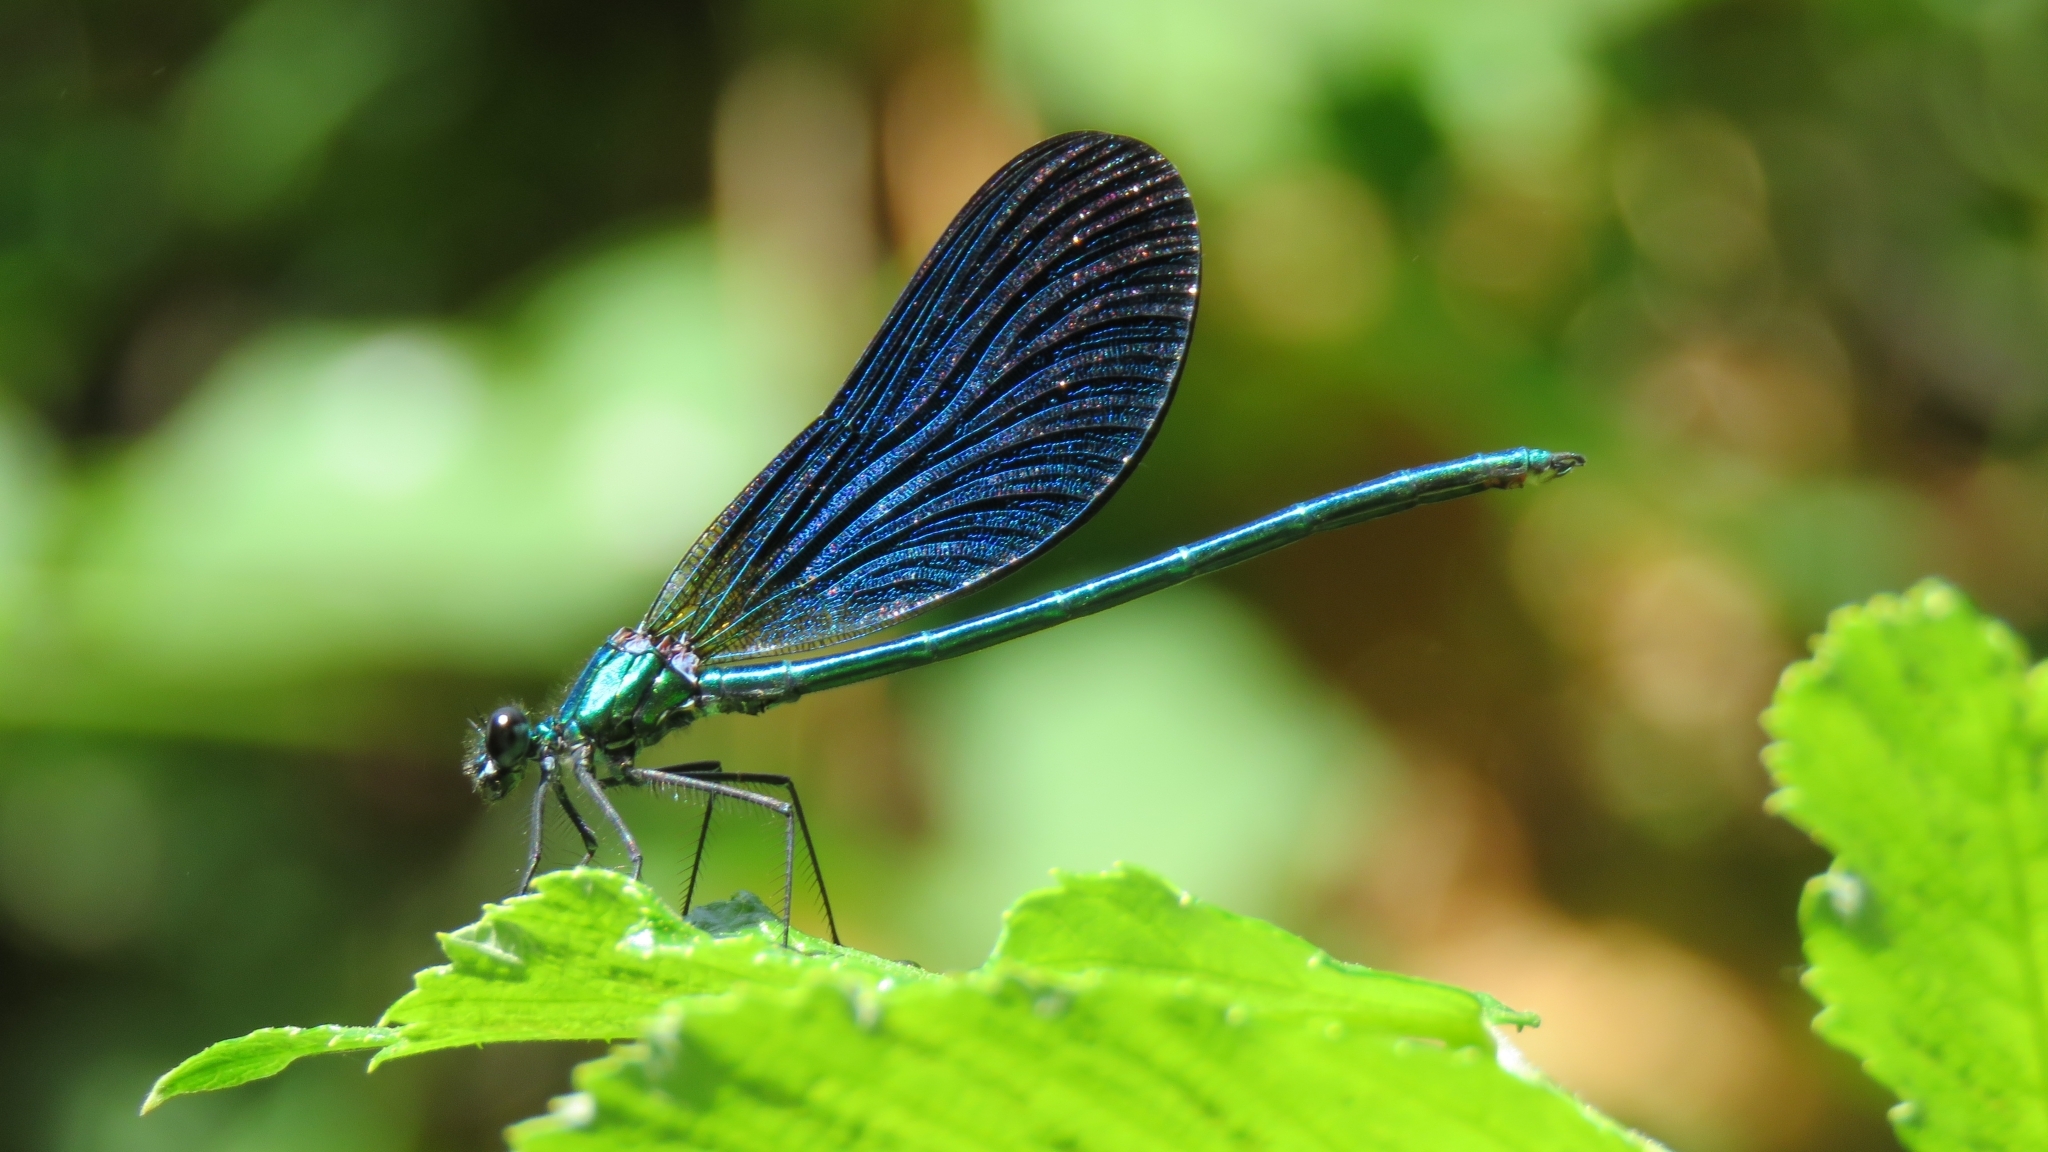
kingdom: Animalia
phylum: Arthropoda
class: Insecta
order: Odonata
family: Calopterygidae
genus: Calopteryx
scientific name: Calopteryx virgo
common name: Beautiful demoiselle
